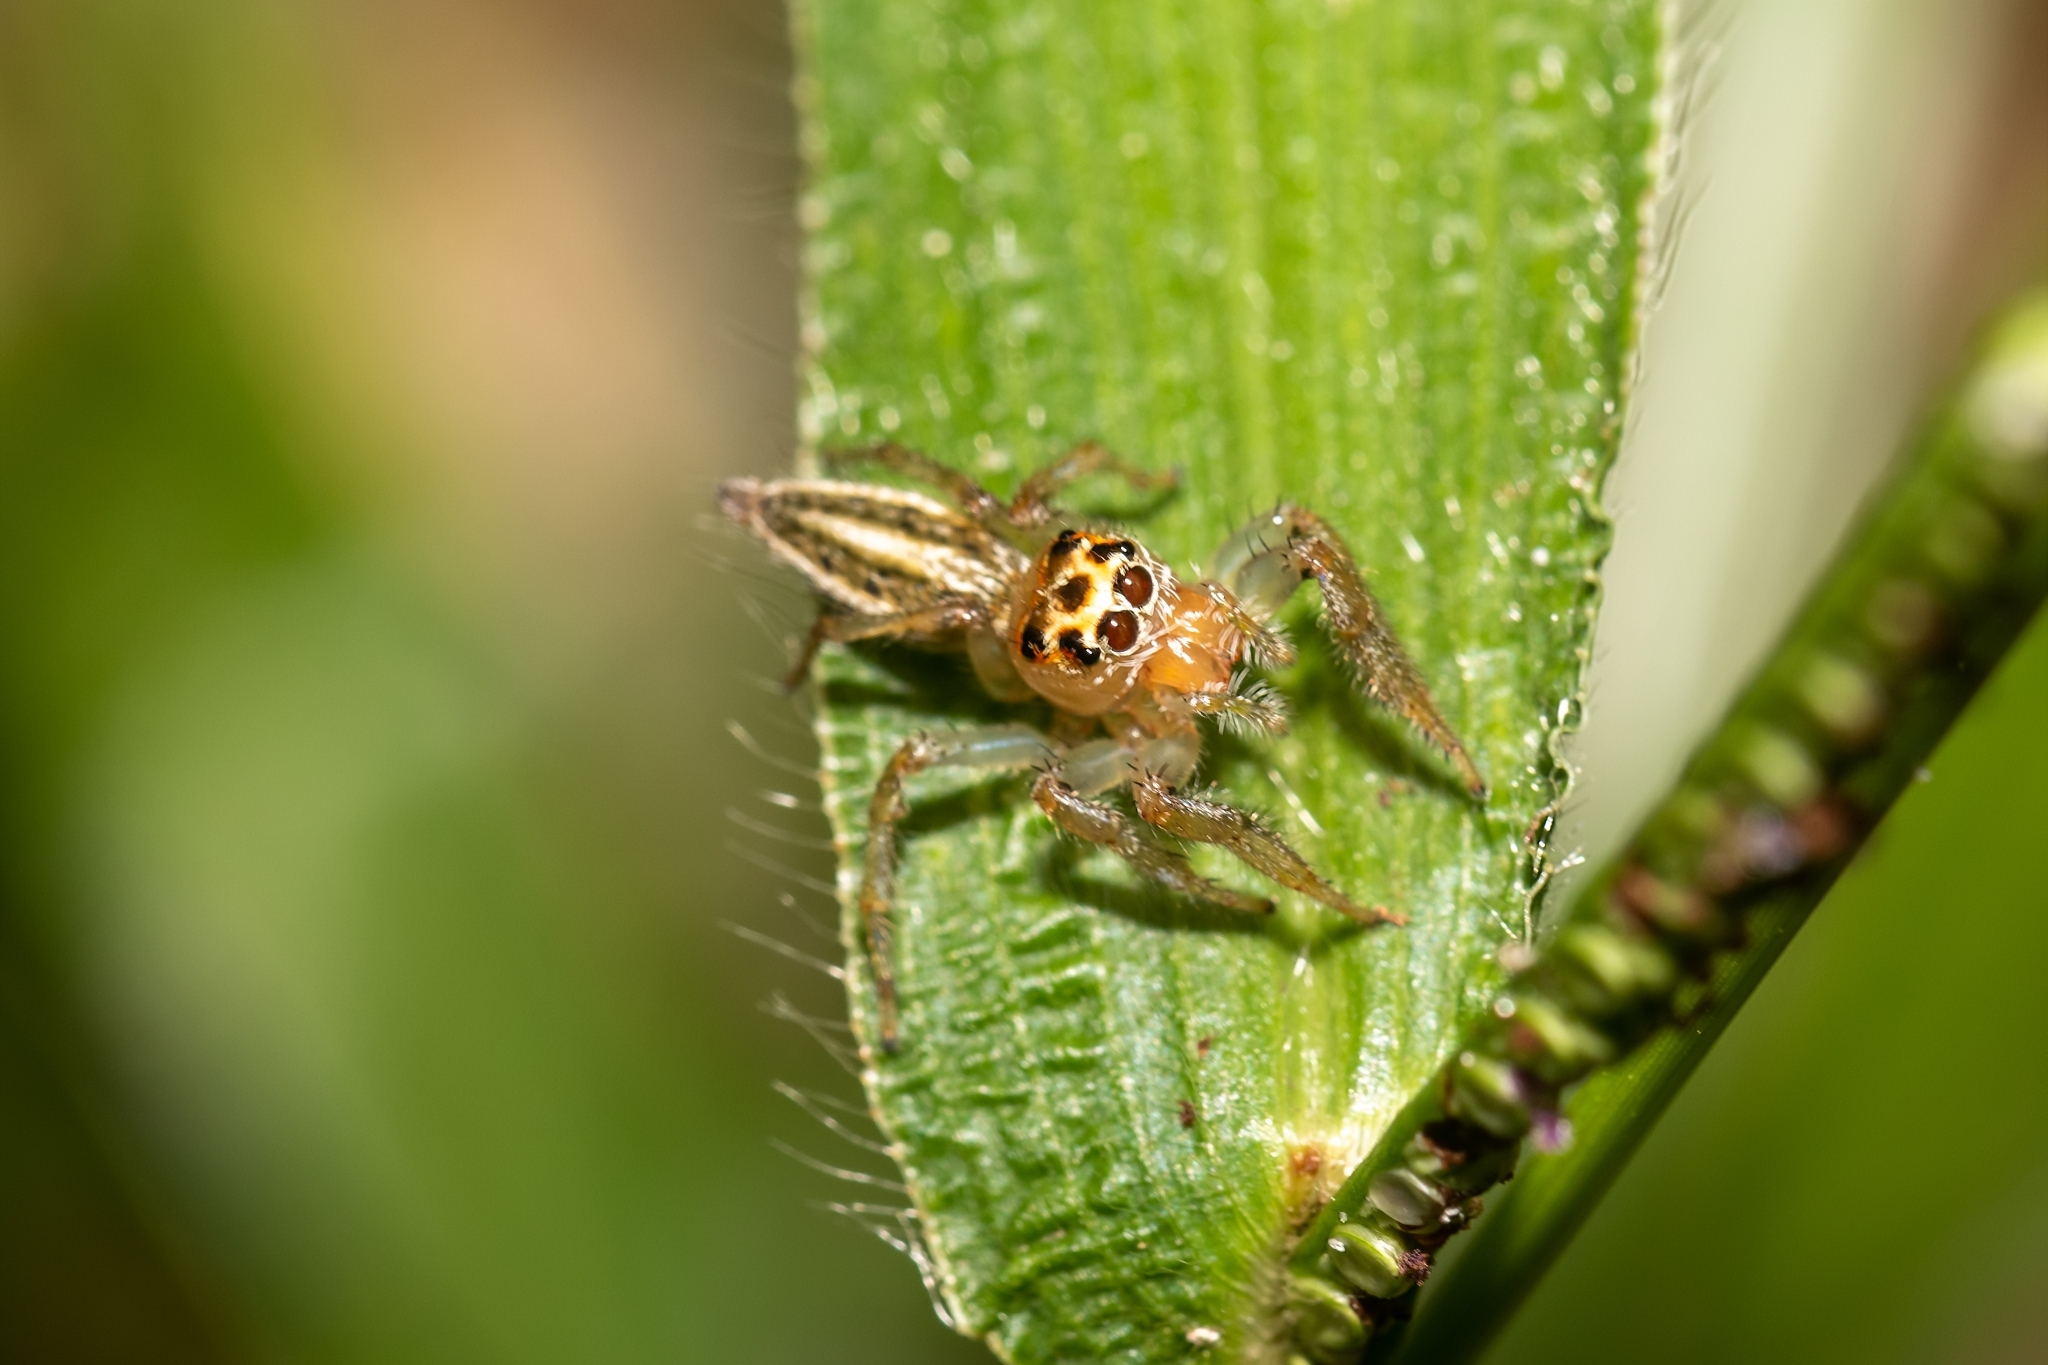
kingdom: Animalia
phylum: Arthropoda
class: Arachnida
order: Araneae
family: Salticidae
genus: Colonus
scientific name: Colonus sylvanus
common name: Jumping spiders
